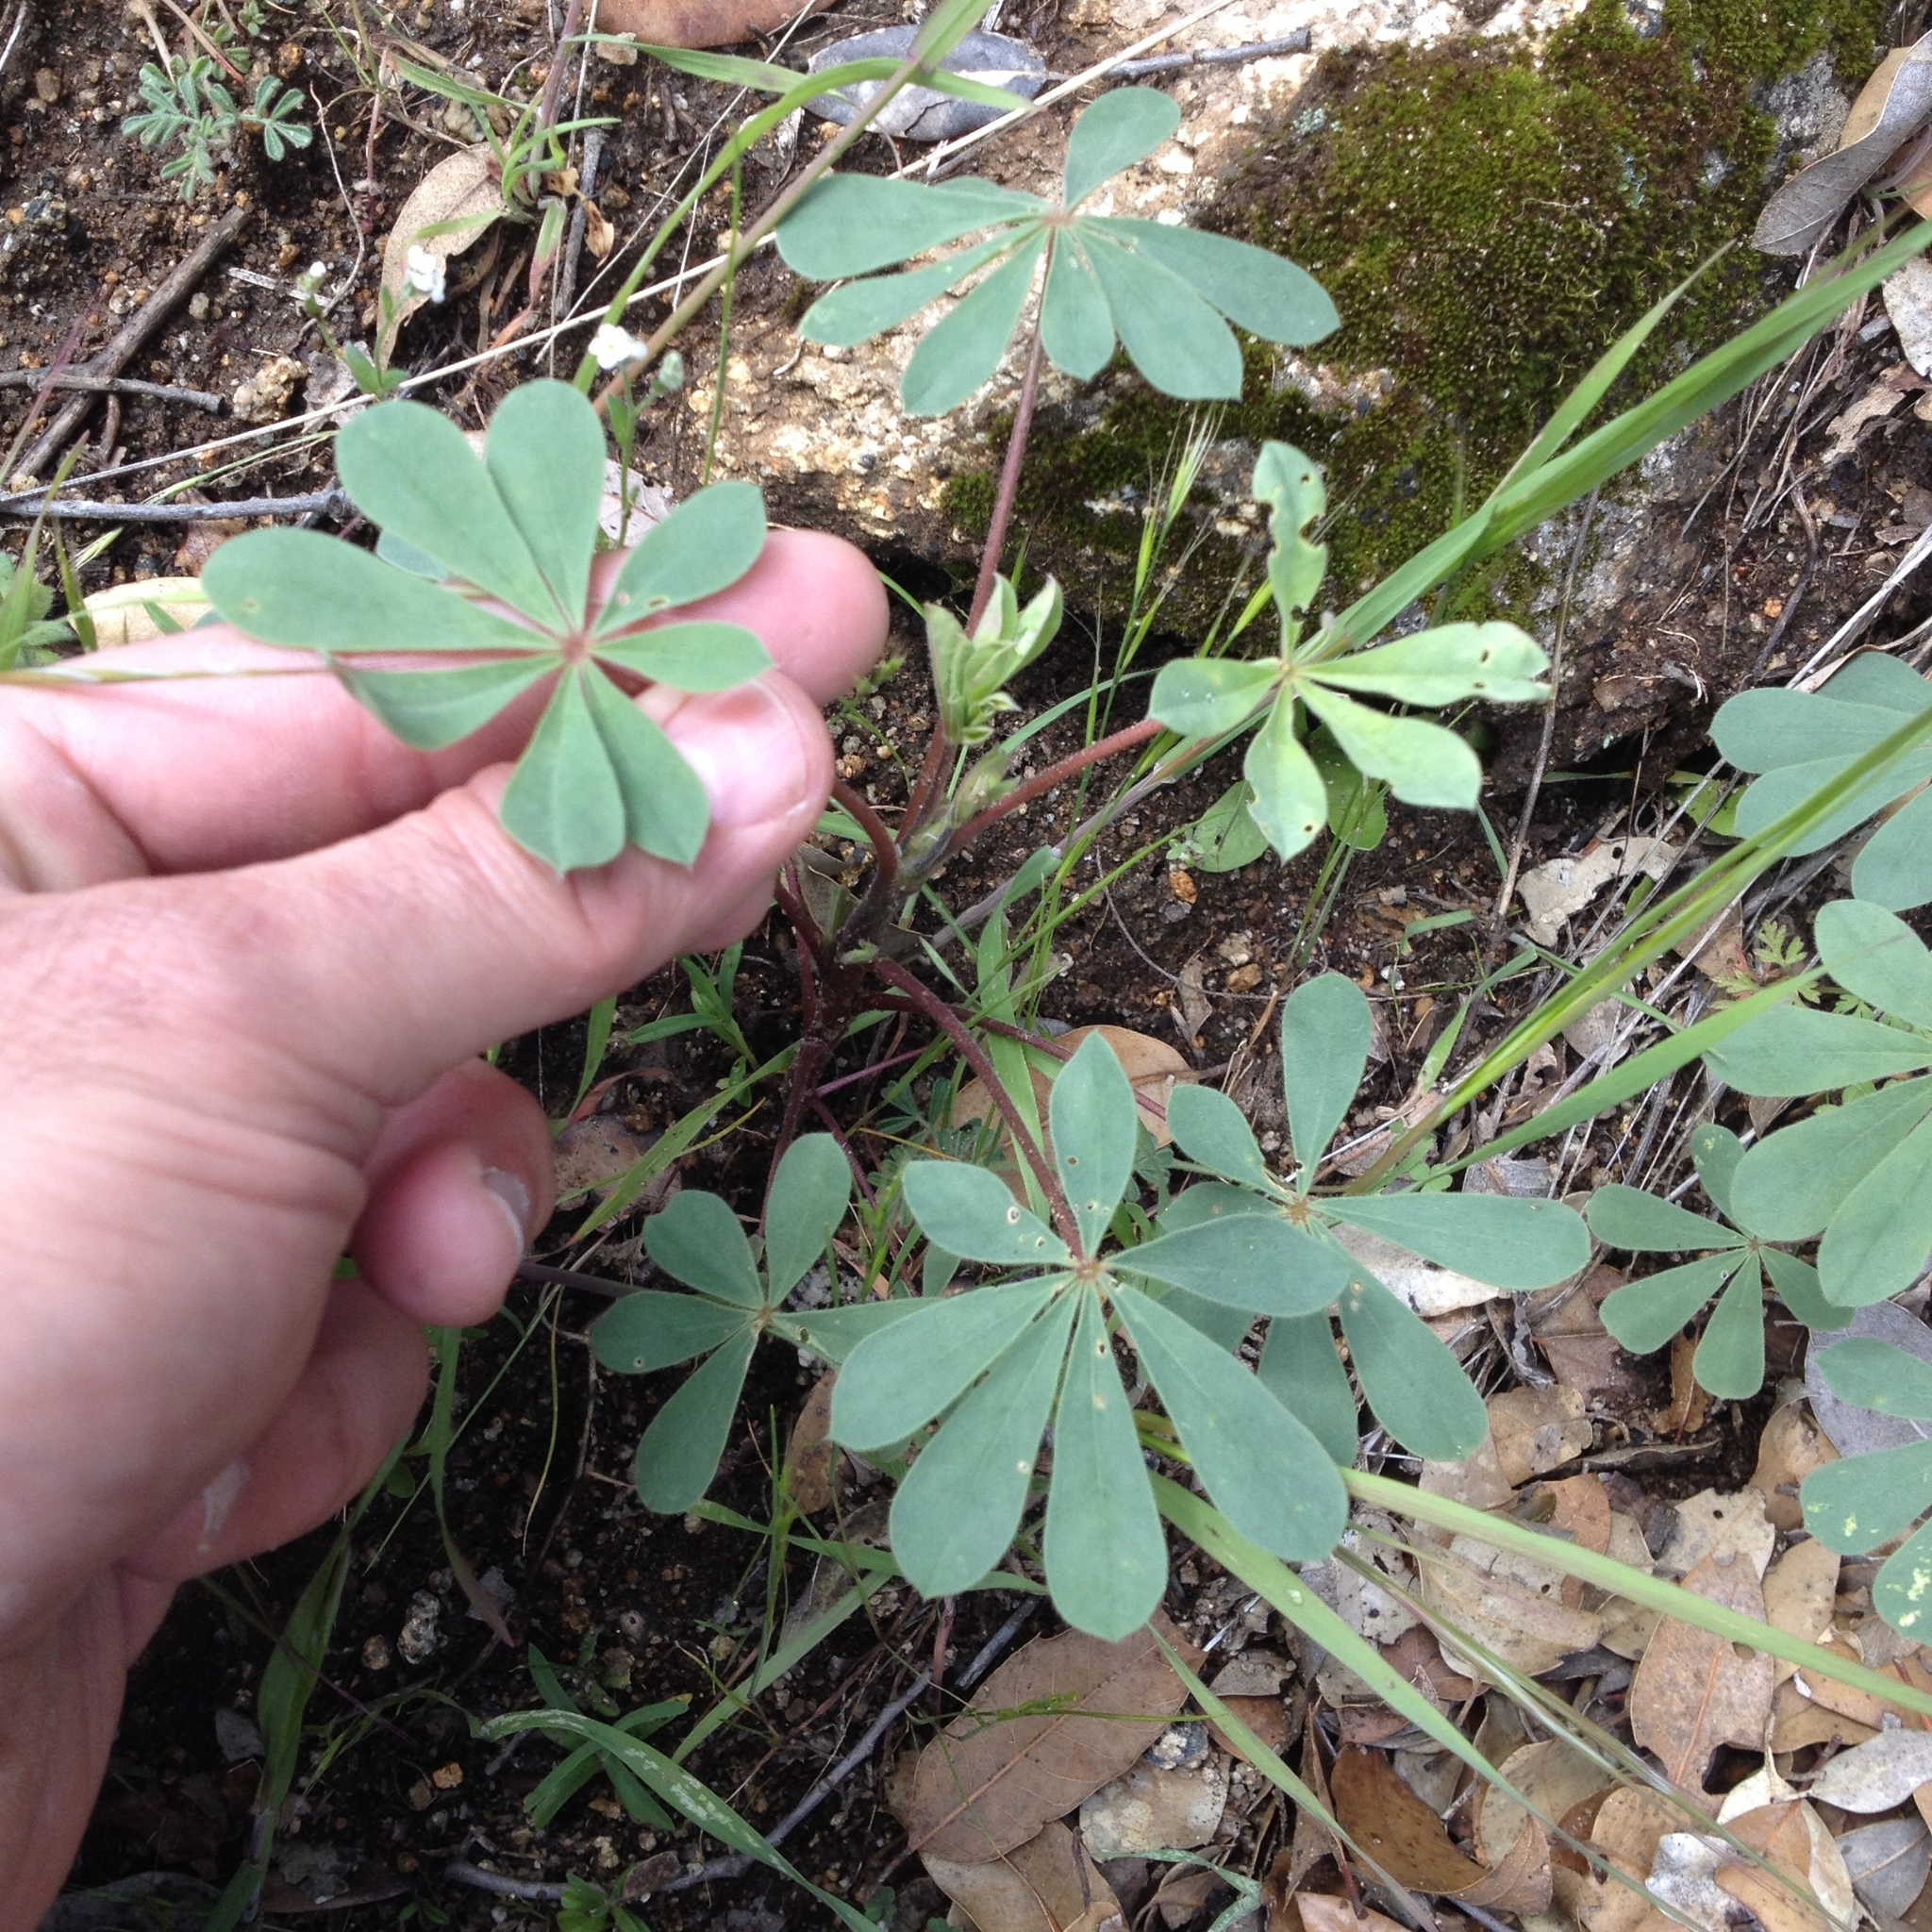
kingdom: Plantae
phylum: Tracheophyta
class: Magnoliopsida
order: Fabales
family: Fabaceae
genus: Lupinus
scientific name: Lupinus stiversii
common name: Harlequin lupine
